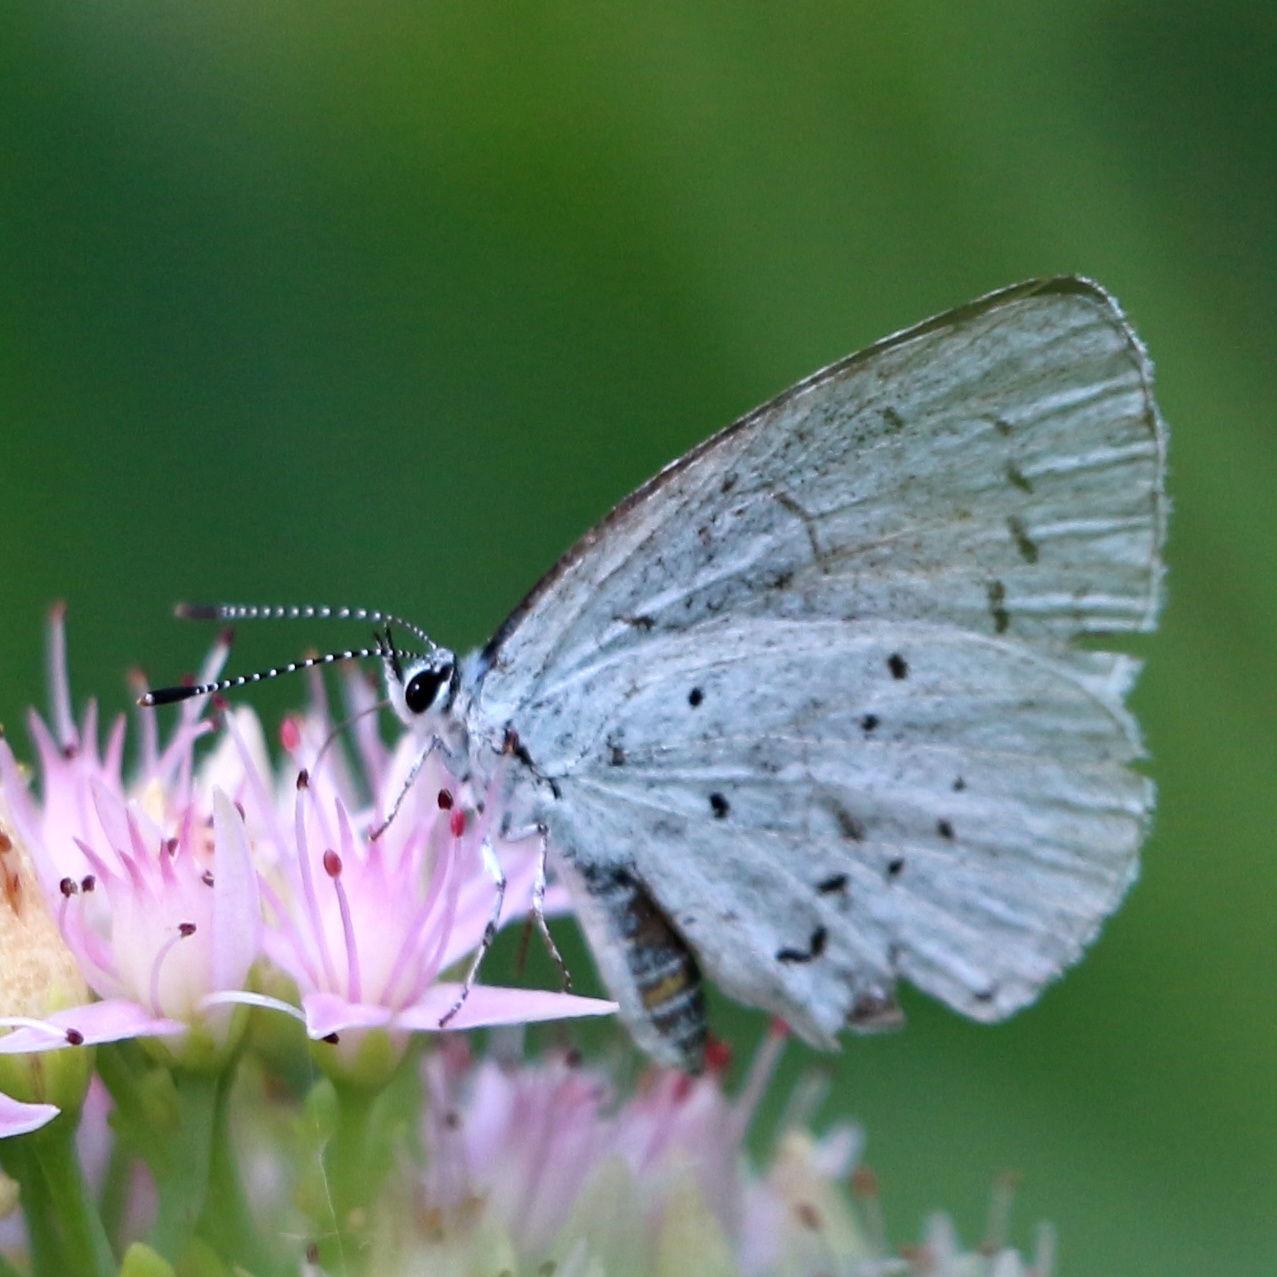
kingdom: Animalia
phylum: Arthropoda
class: Insecta
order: Lepidoptera
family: Lycaenidae
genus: Celastrina
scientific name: Celastrina argiolus
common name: Holly blue
